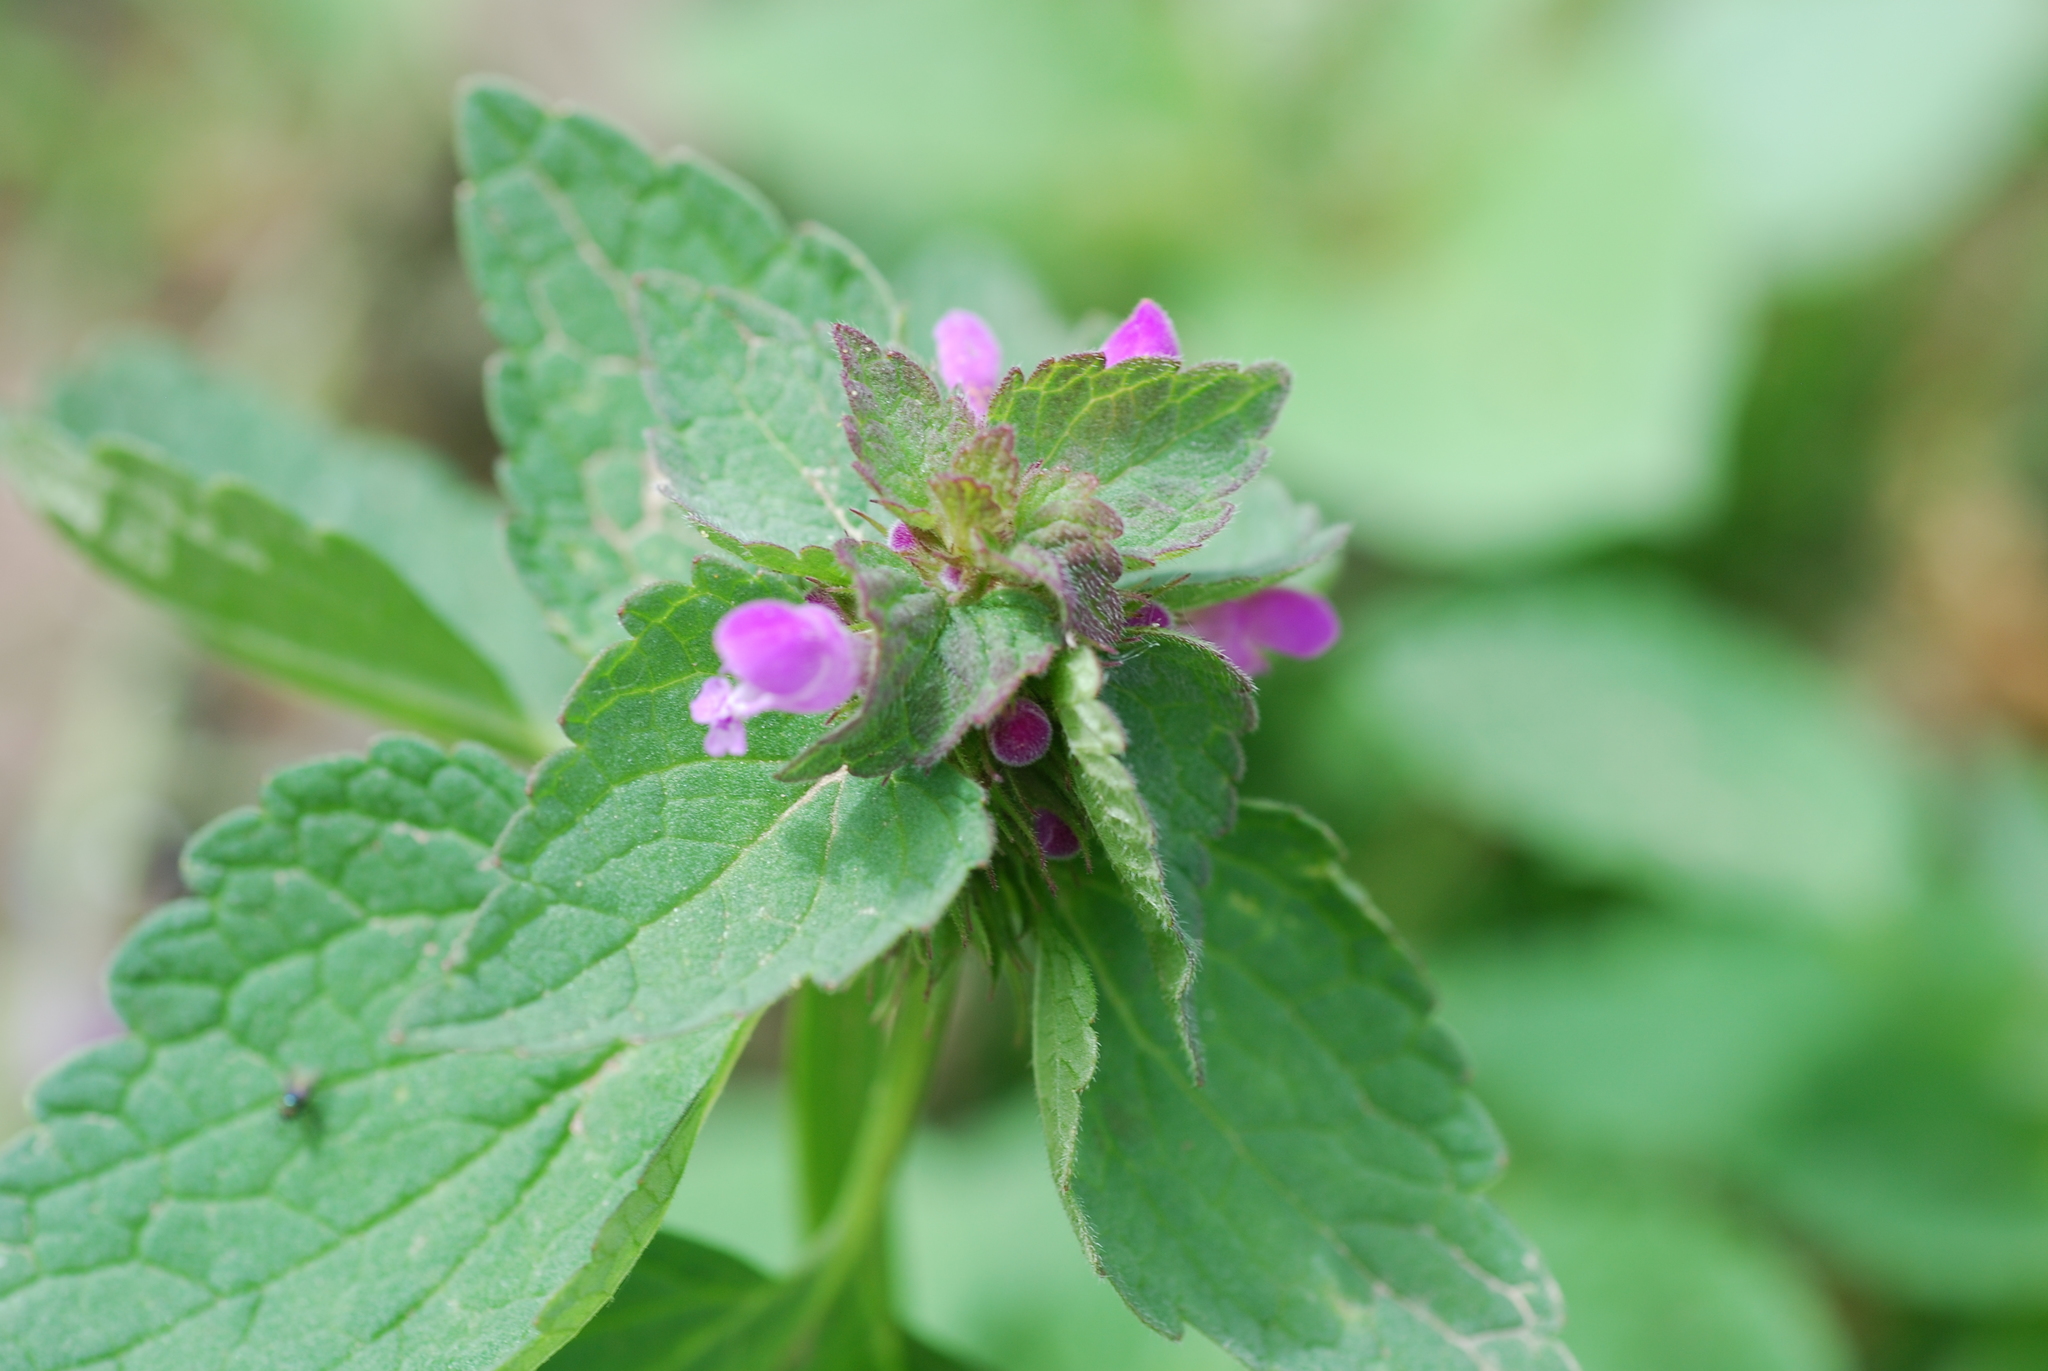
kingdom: Plantae
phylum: Tracheophyta
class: Magnoliopsida
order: Lamiales
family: Lamiaceae
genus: Lamium
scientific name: Lamium purpureum
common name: Red dead-nettle
